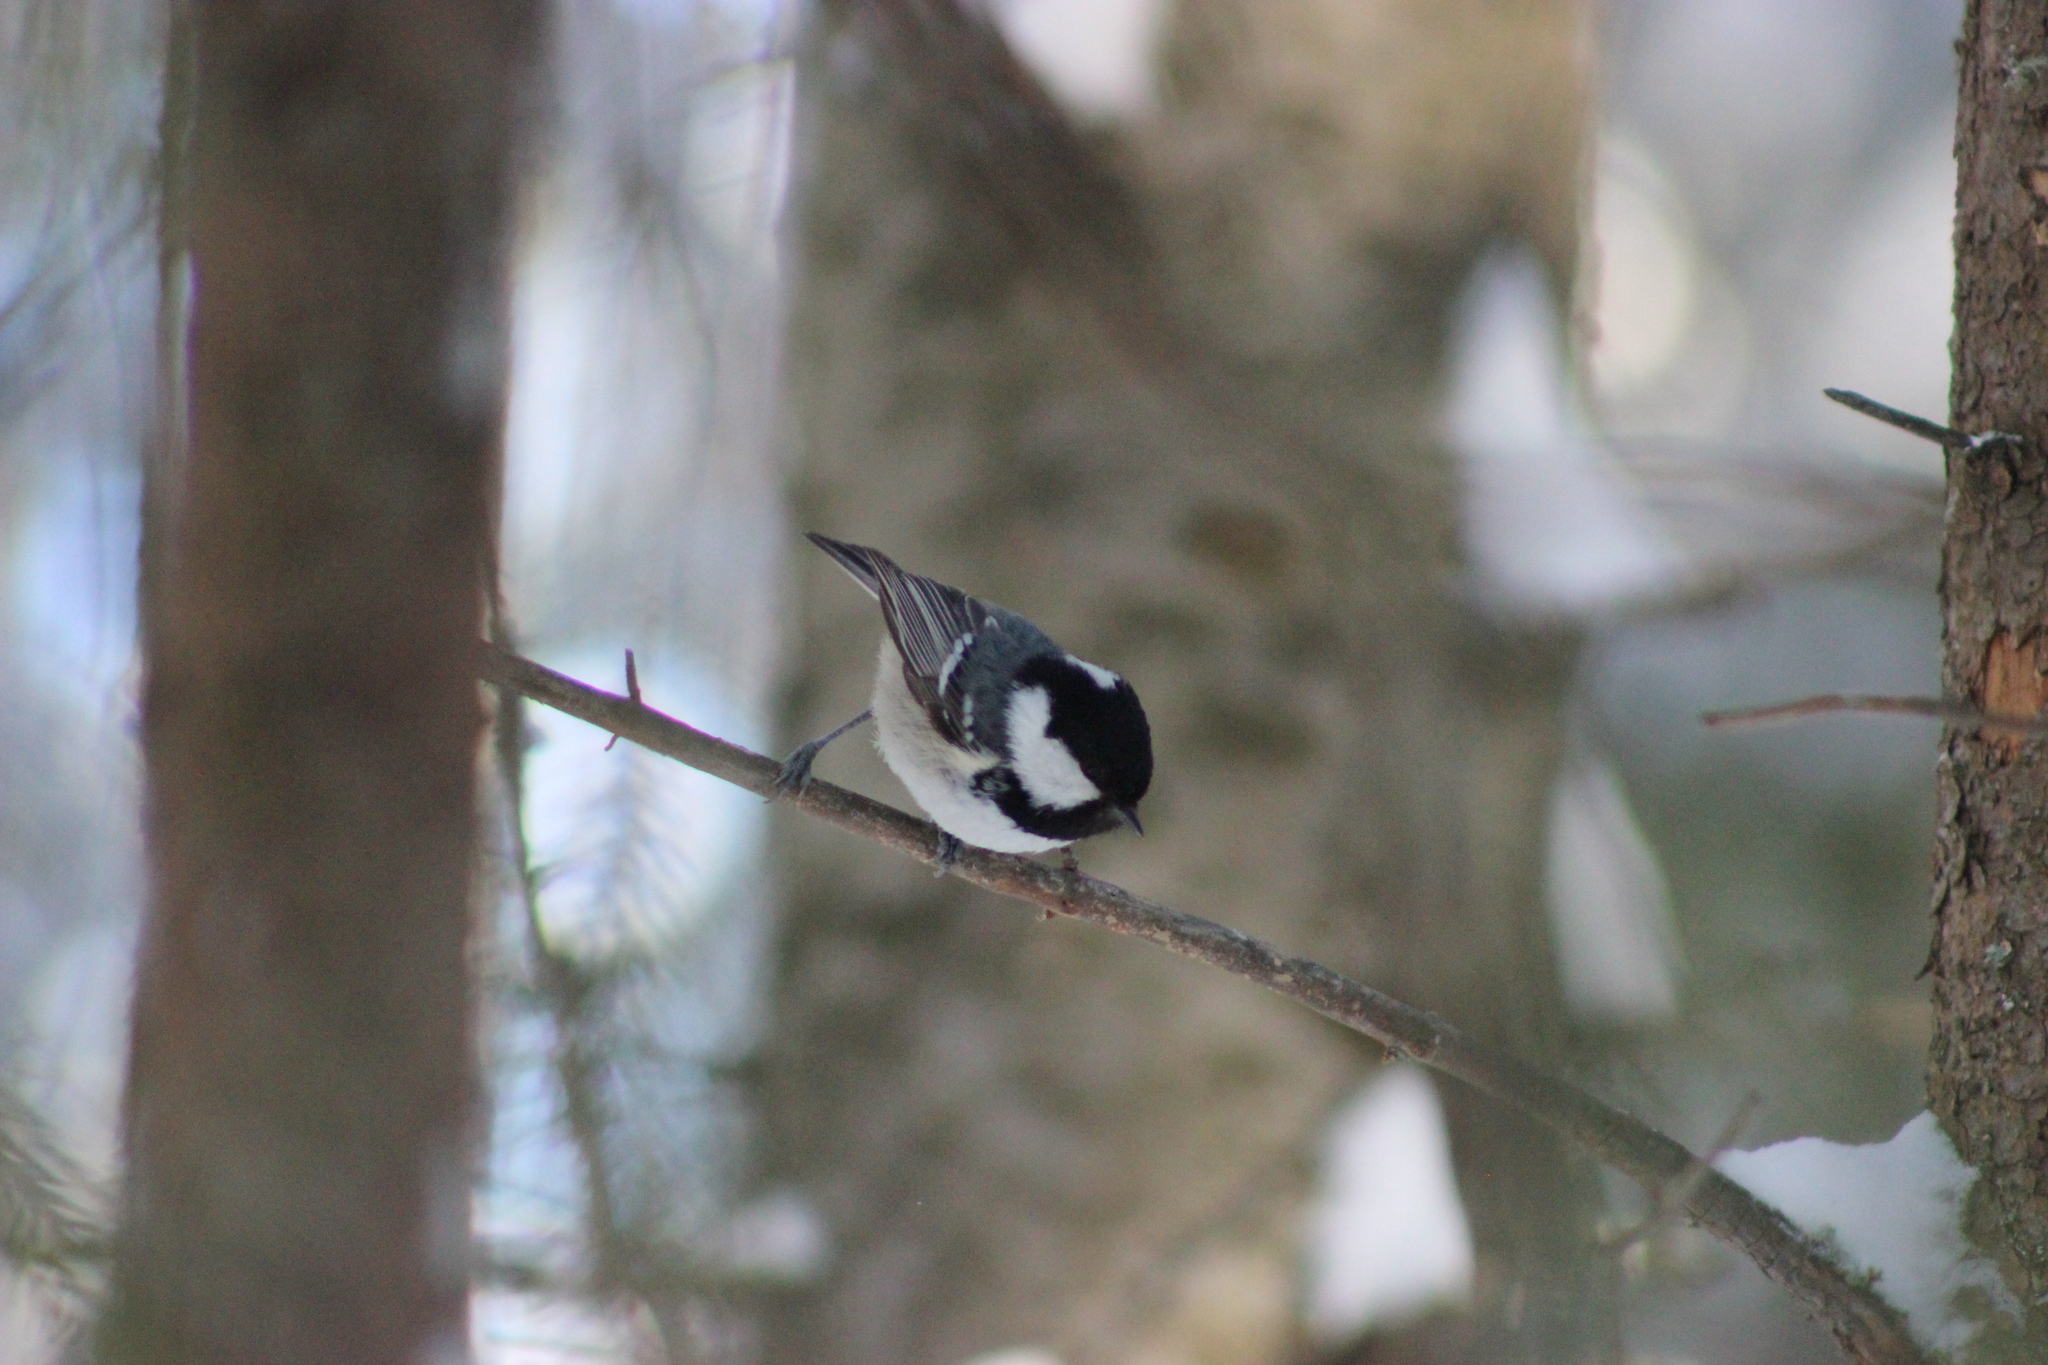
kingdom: Animalia
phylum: Chordata
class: Aves
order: Passeriformes
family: Paridae
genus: Periparus
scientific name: Periparus ater
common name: Coal tit
